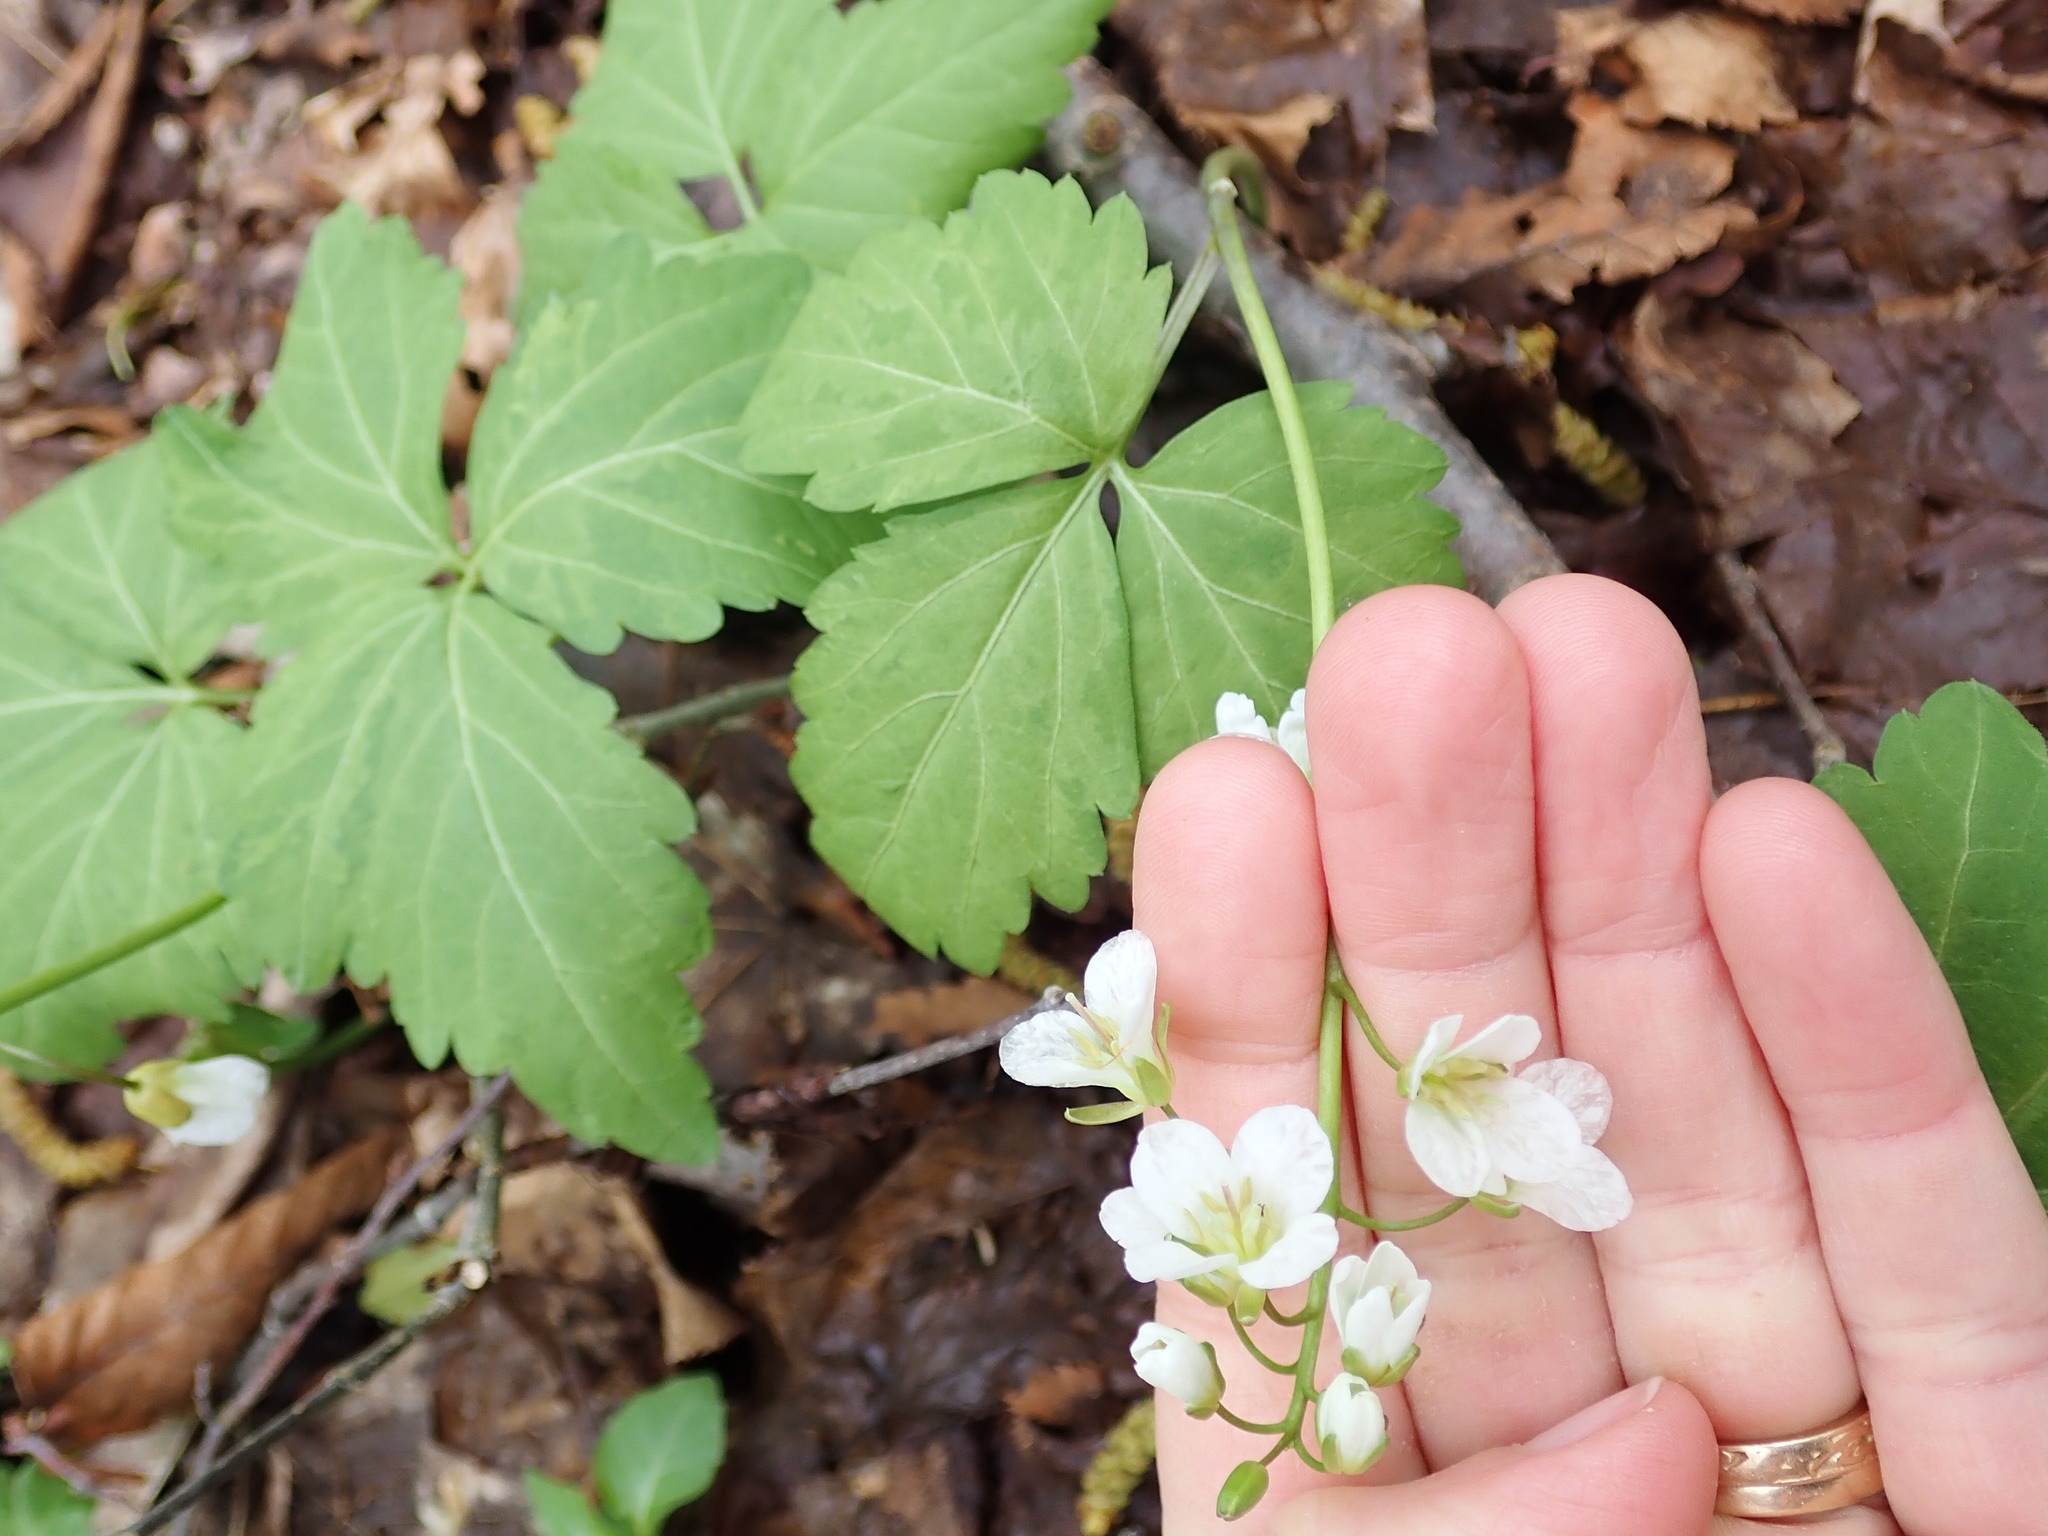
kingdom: Plantae
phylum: Tracheophyta
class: Magnoliopsida
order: Brassicales
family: Brassicaceae
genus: Cardamine
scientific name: Cardamine diphylla
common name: Broad-leaved toothwort
